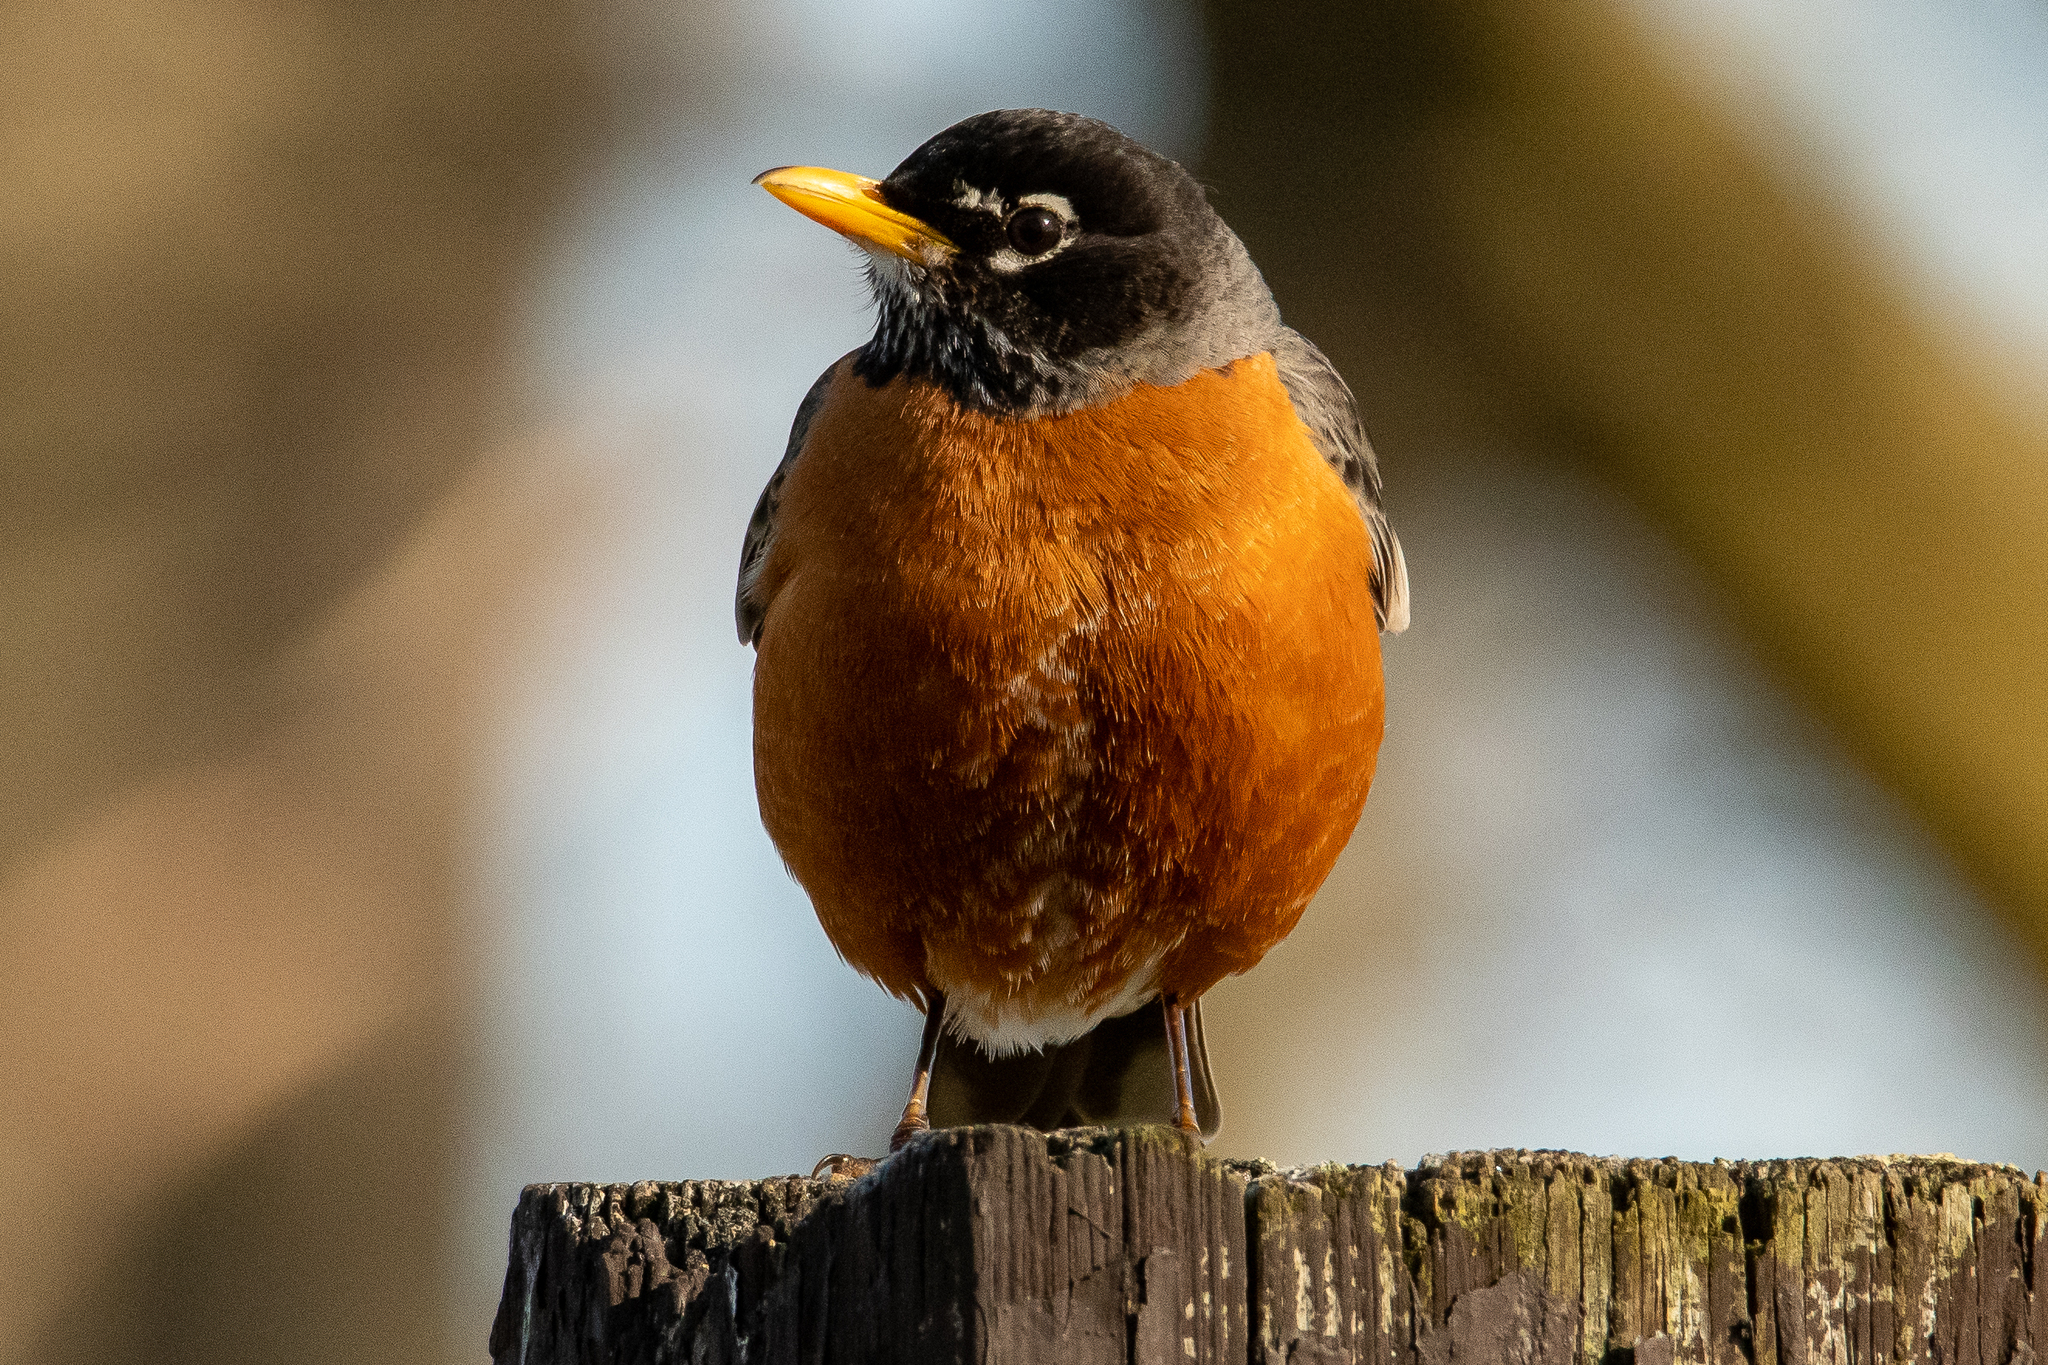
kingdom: Animalia
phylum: Chordata
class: Aves
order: Passeriformes
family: Turdidae
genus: Turdus
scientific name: Turdus migratorius
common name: American robin
